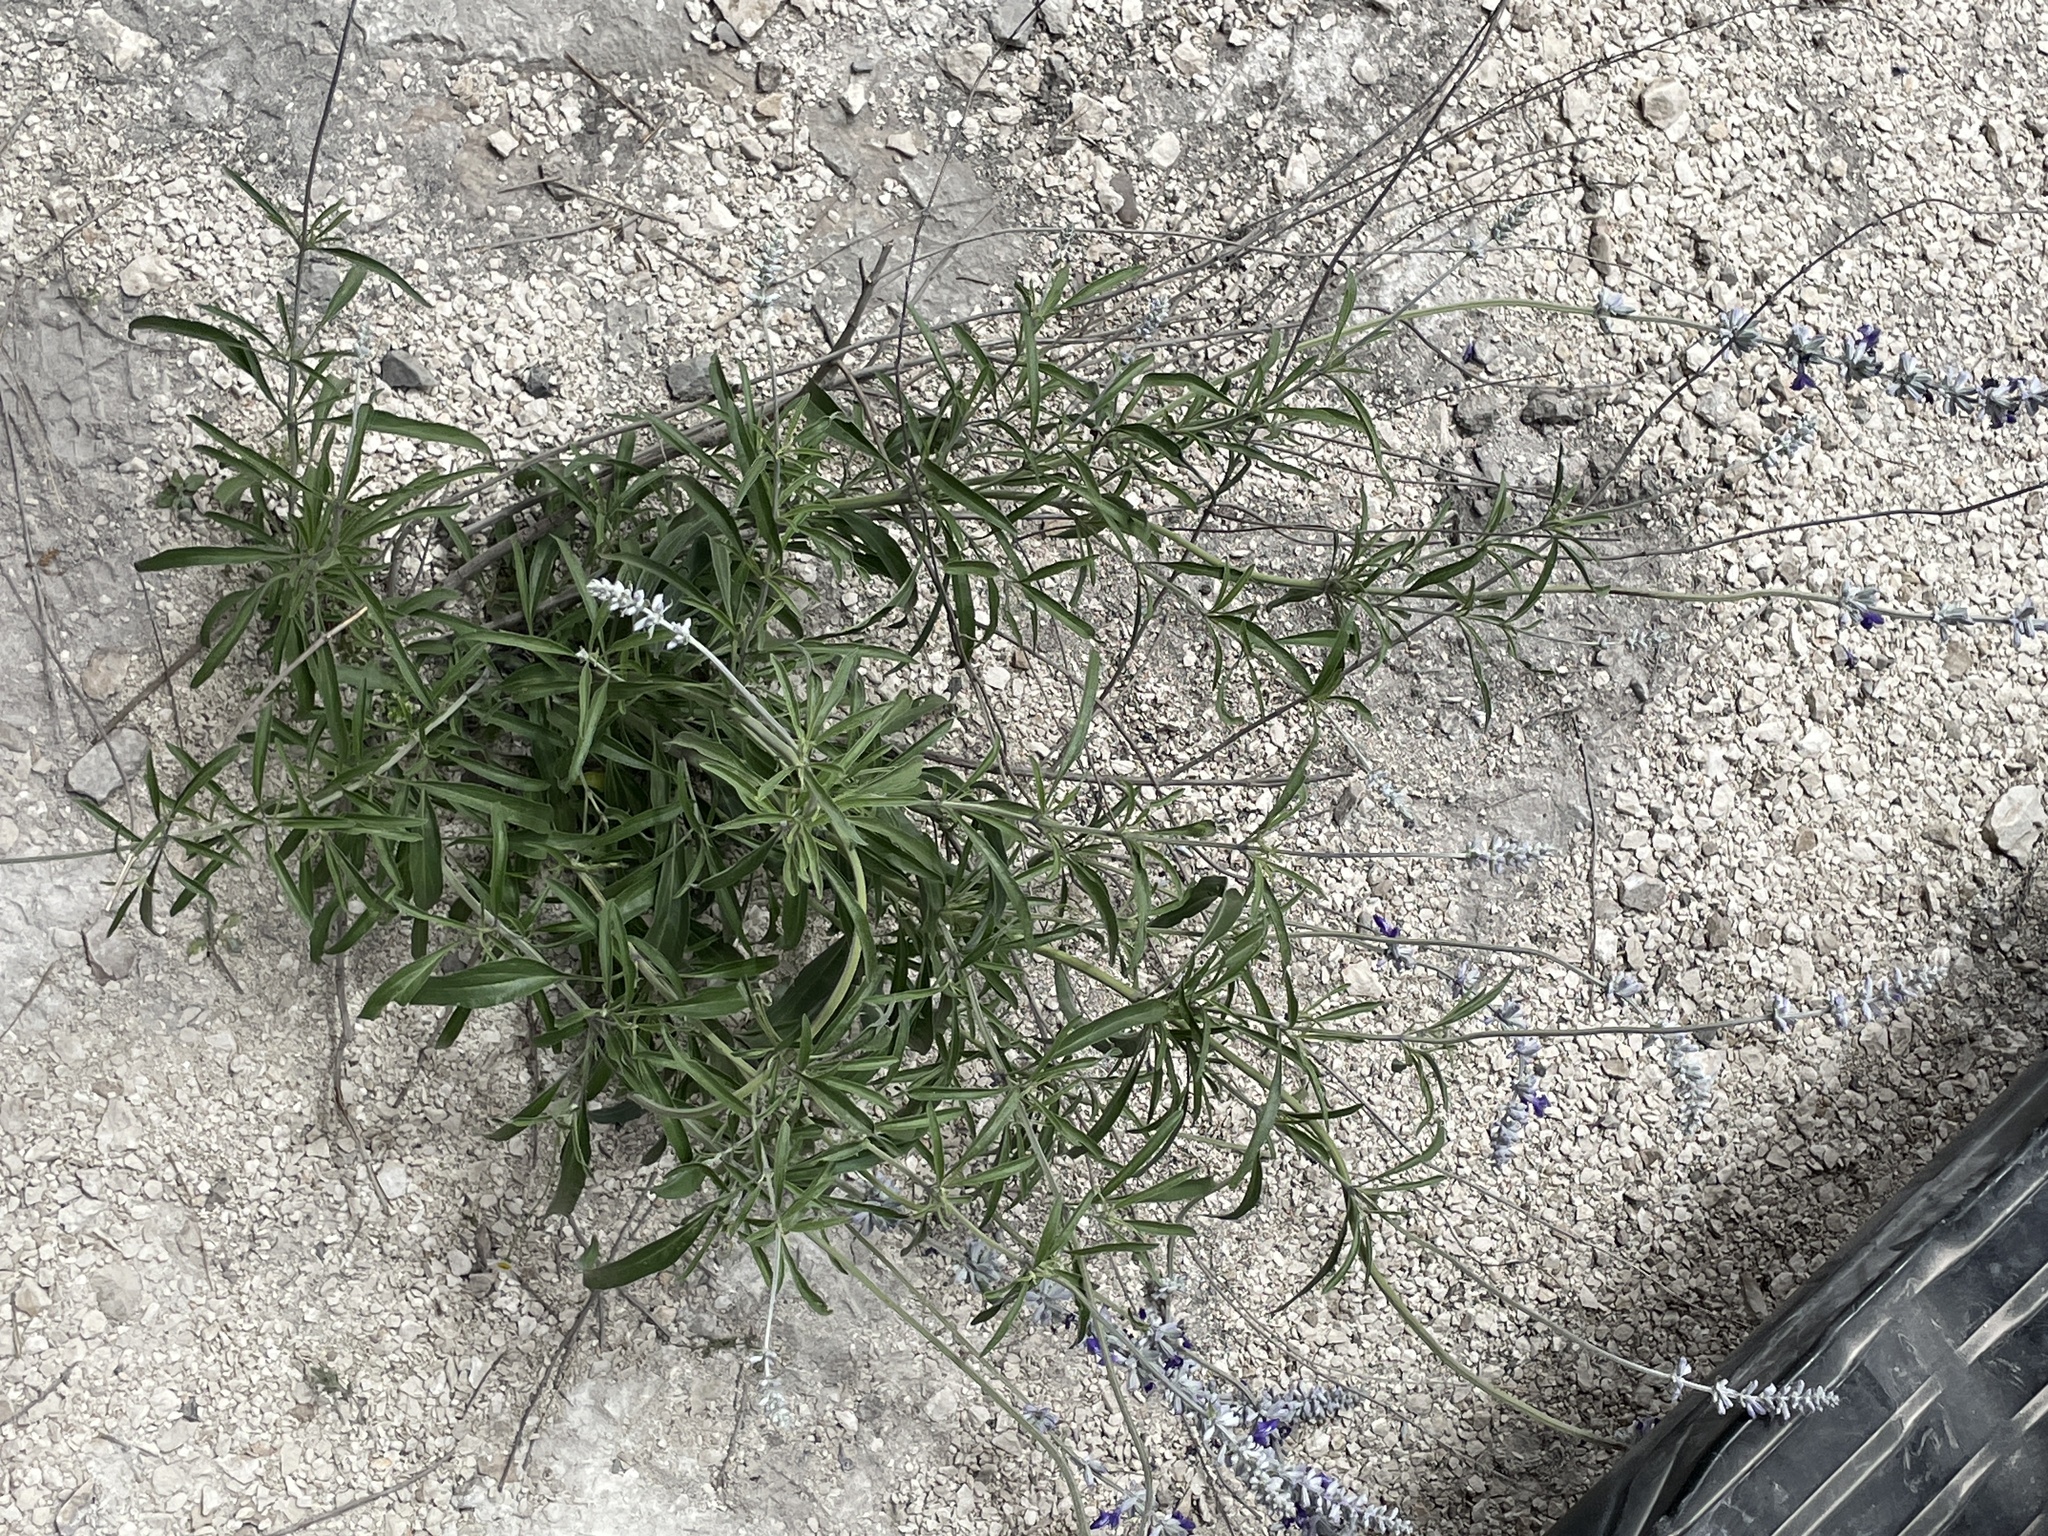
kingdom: Plantae
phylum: Tracheophyta
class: Magnoliopsida
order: Lamiales
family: Lamiaceae
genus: Salvia
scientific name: Salvia farinacea
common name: Mealy sage
